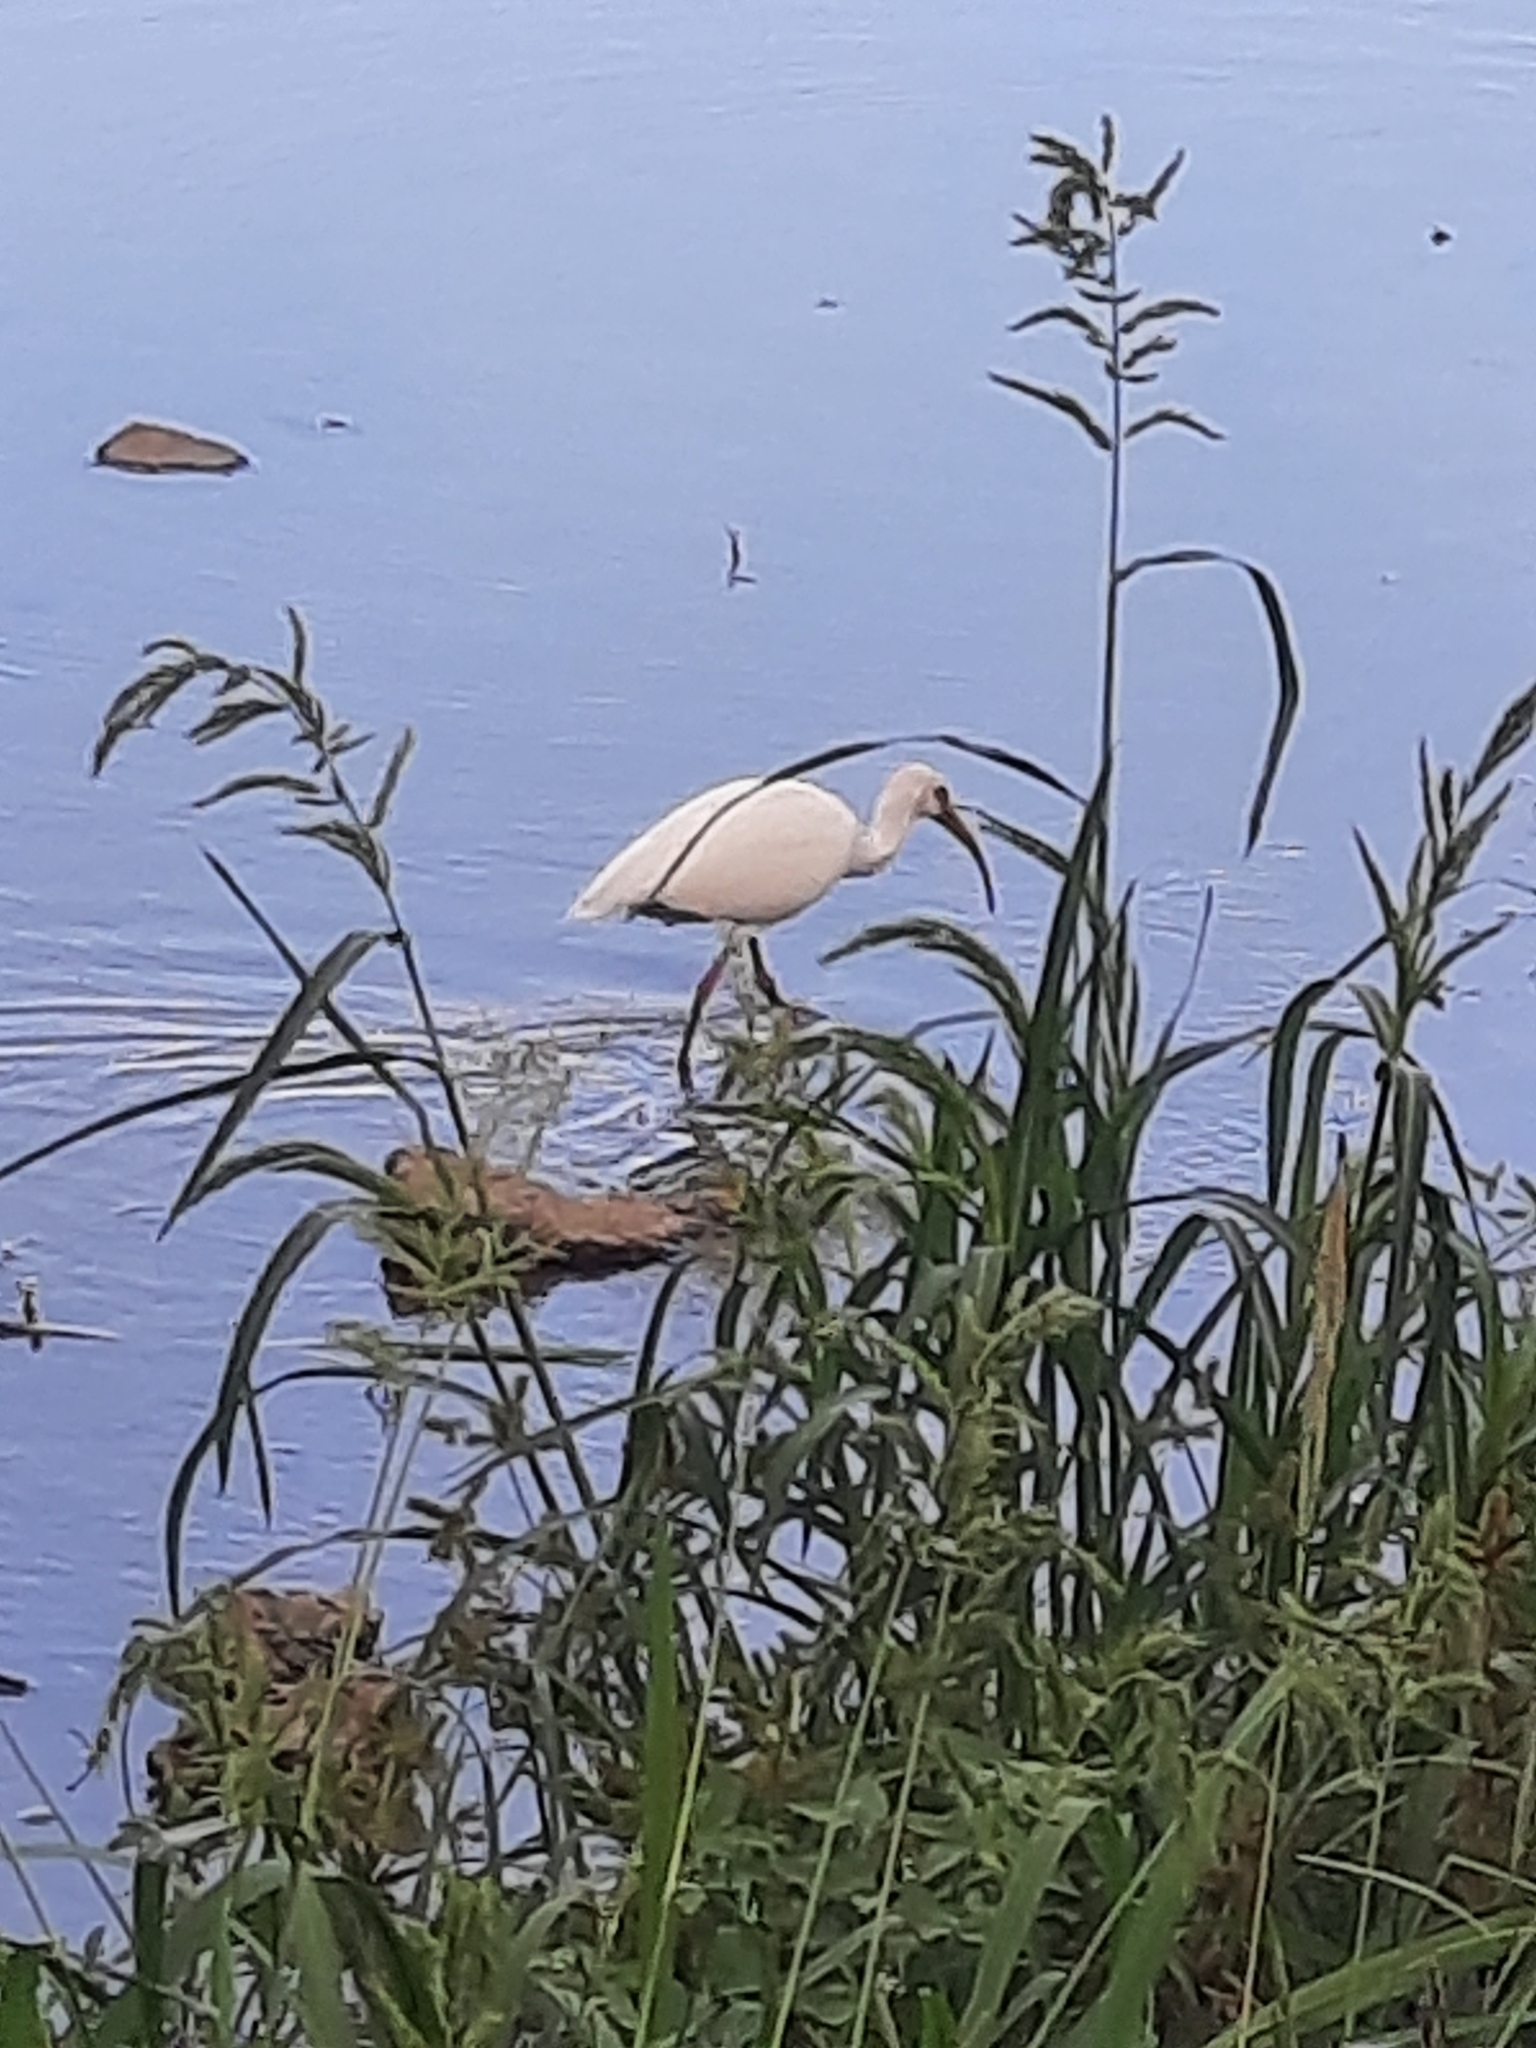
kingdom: Animalia
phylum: Chordata
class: Aves
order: Pelecaniformes
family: Threskiornithidae
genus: Eudocimus
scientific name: Eudocimus albus
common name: White ibis
